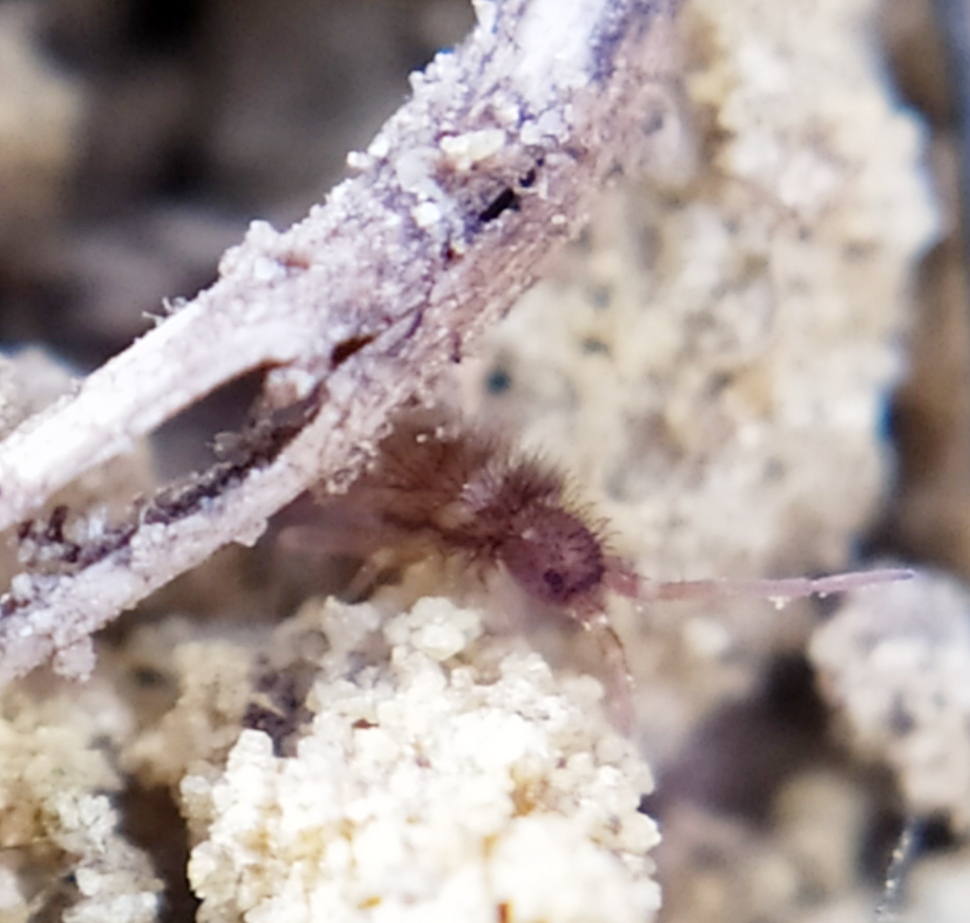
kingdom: Animalia
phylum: Arthropoda
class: Collembola
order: Entomobryomorpha
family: Orchesellidae
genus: Orchesella
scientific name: Orchesella cincta
